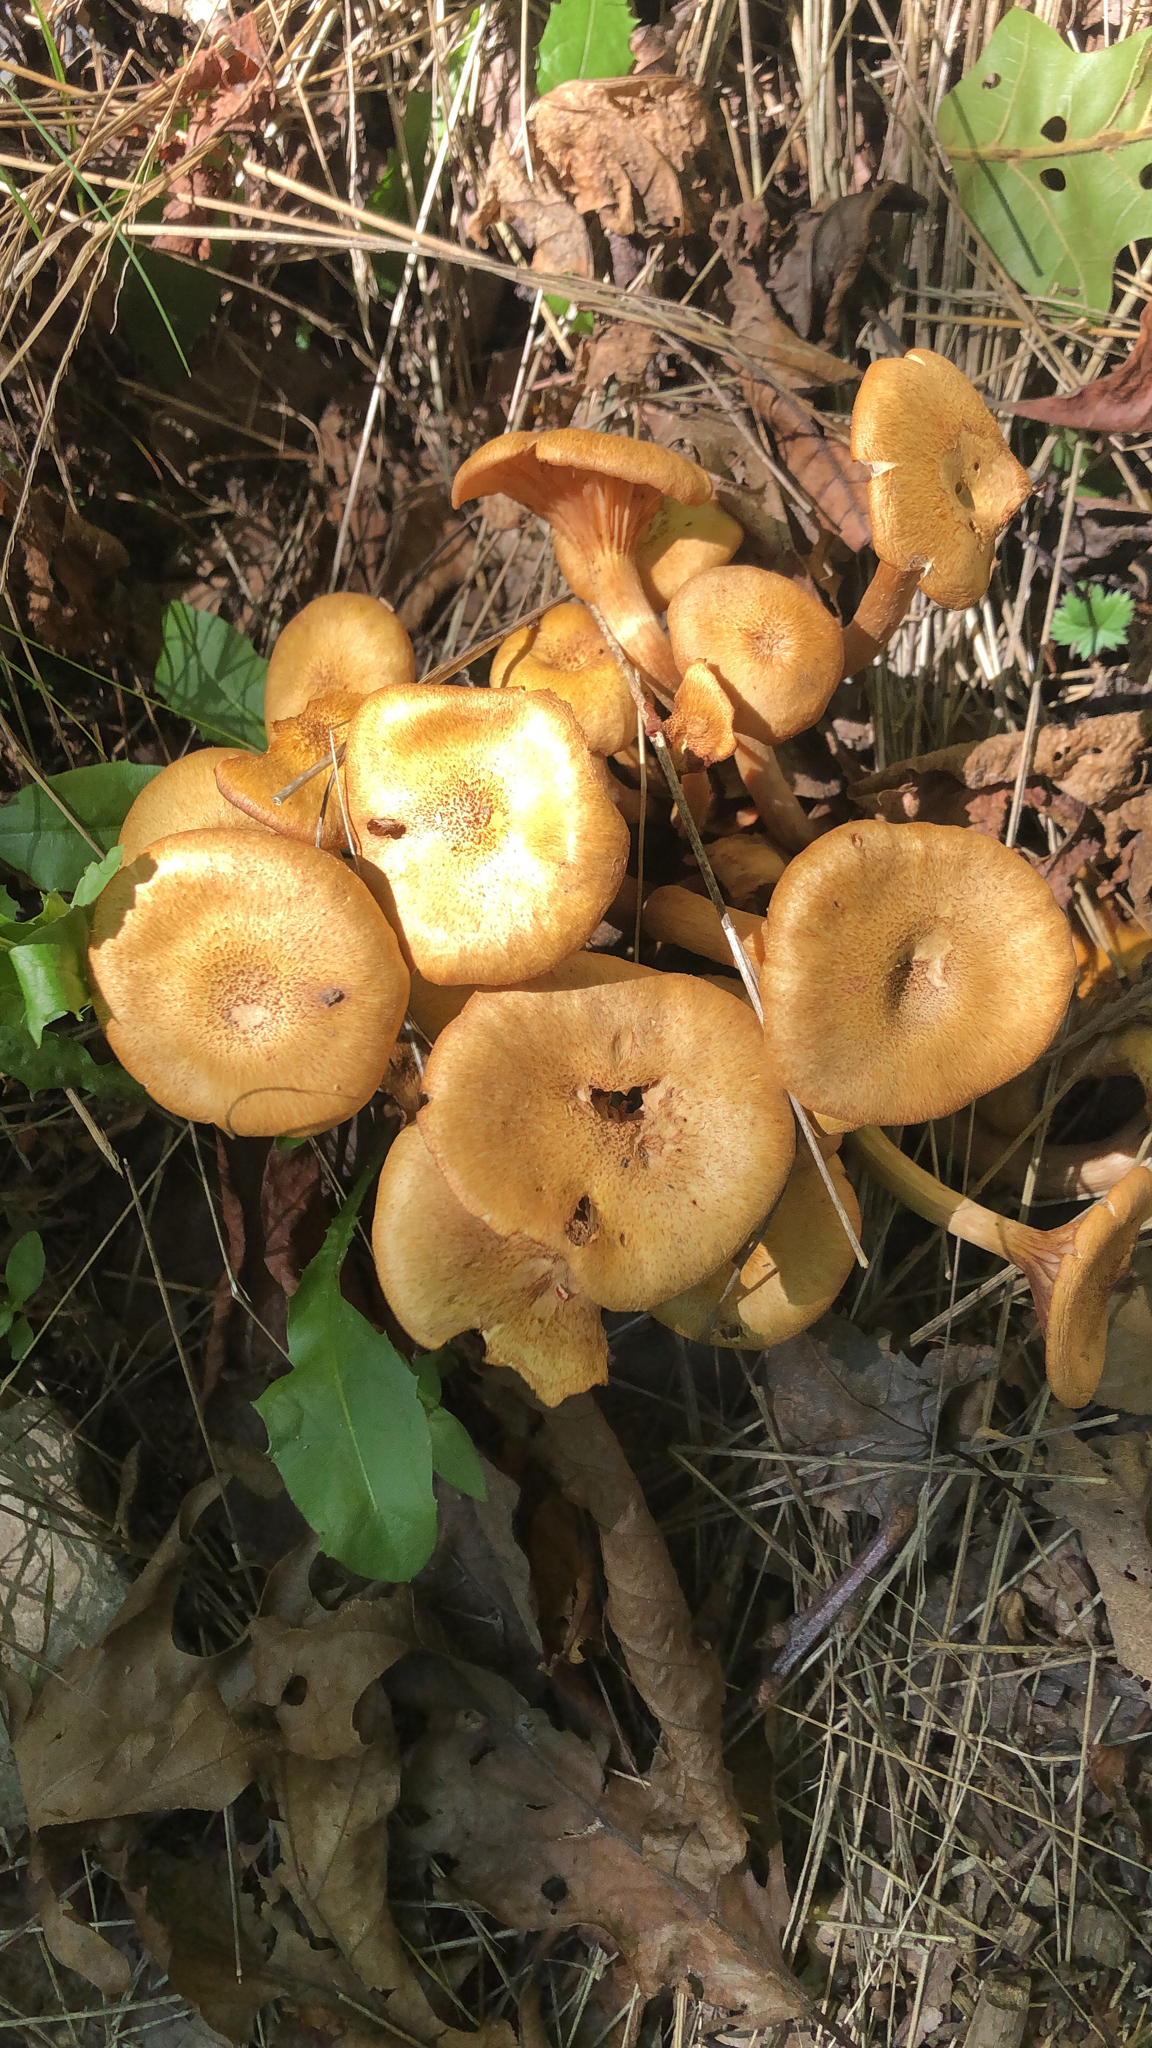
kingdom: Fungi
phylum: Basidiomycota
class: Agaricomycetes
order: Agaricales
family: Physalacriaceae
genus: Desarmillaria
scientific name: Desarmillaria caespitosa
